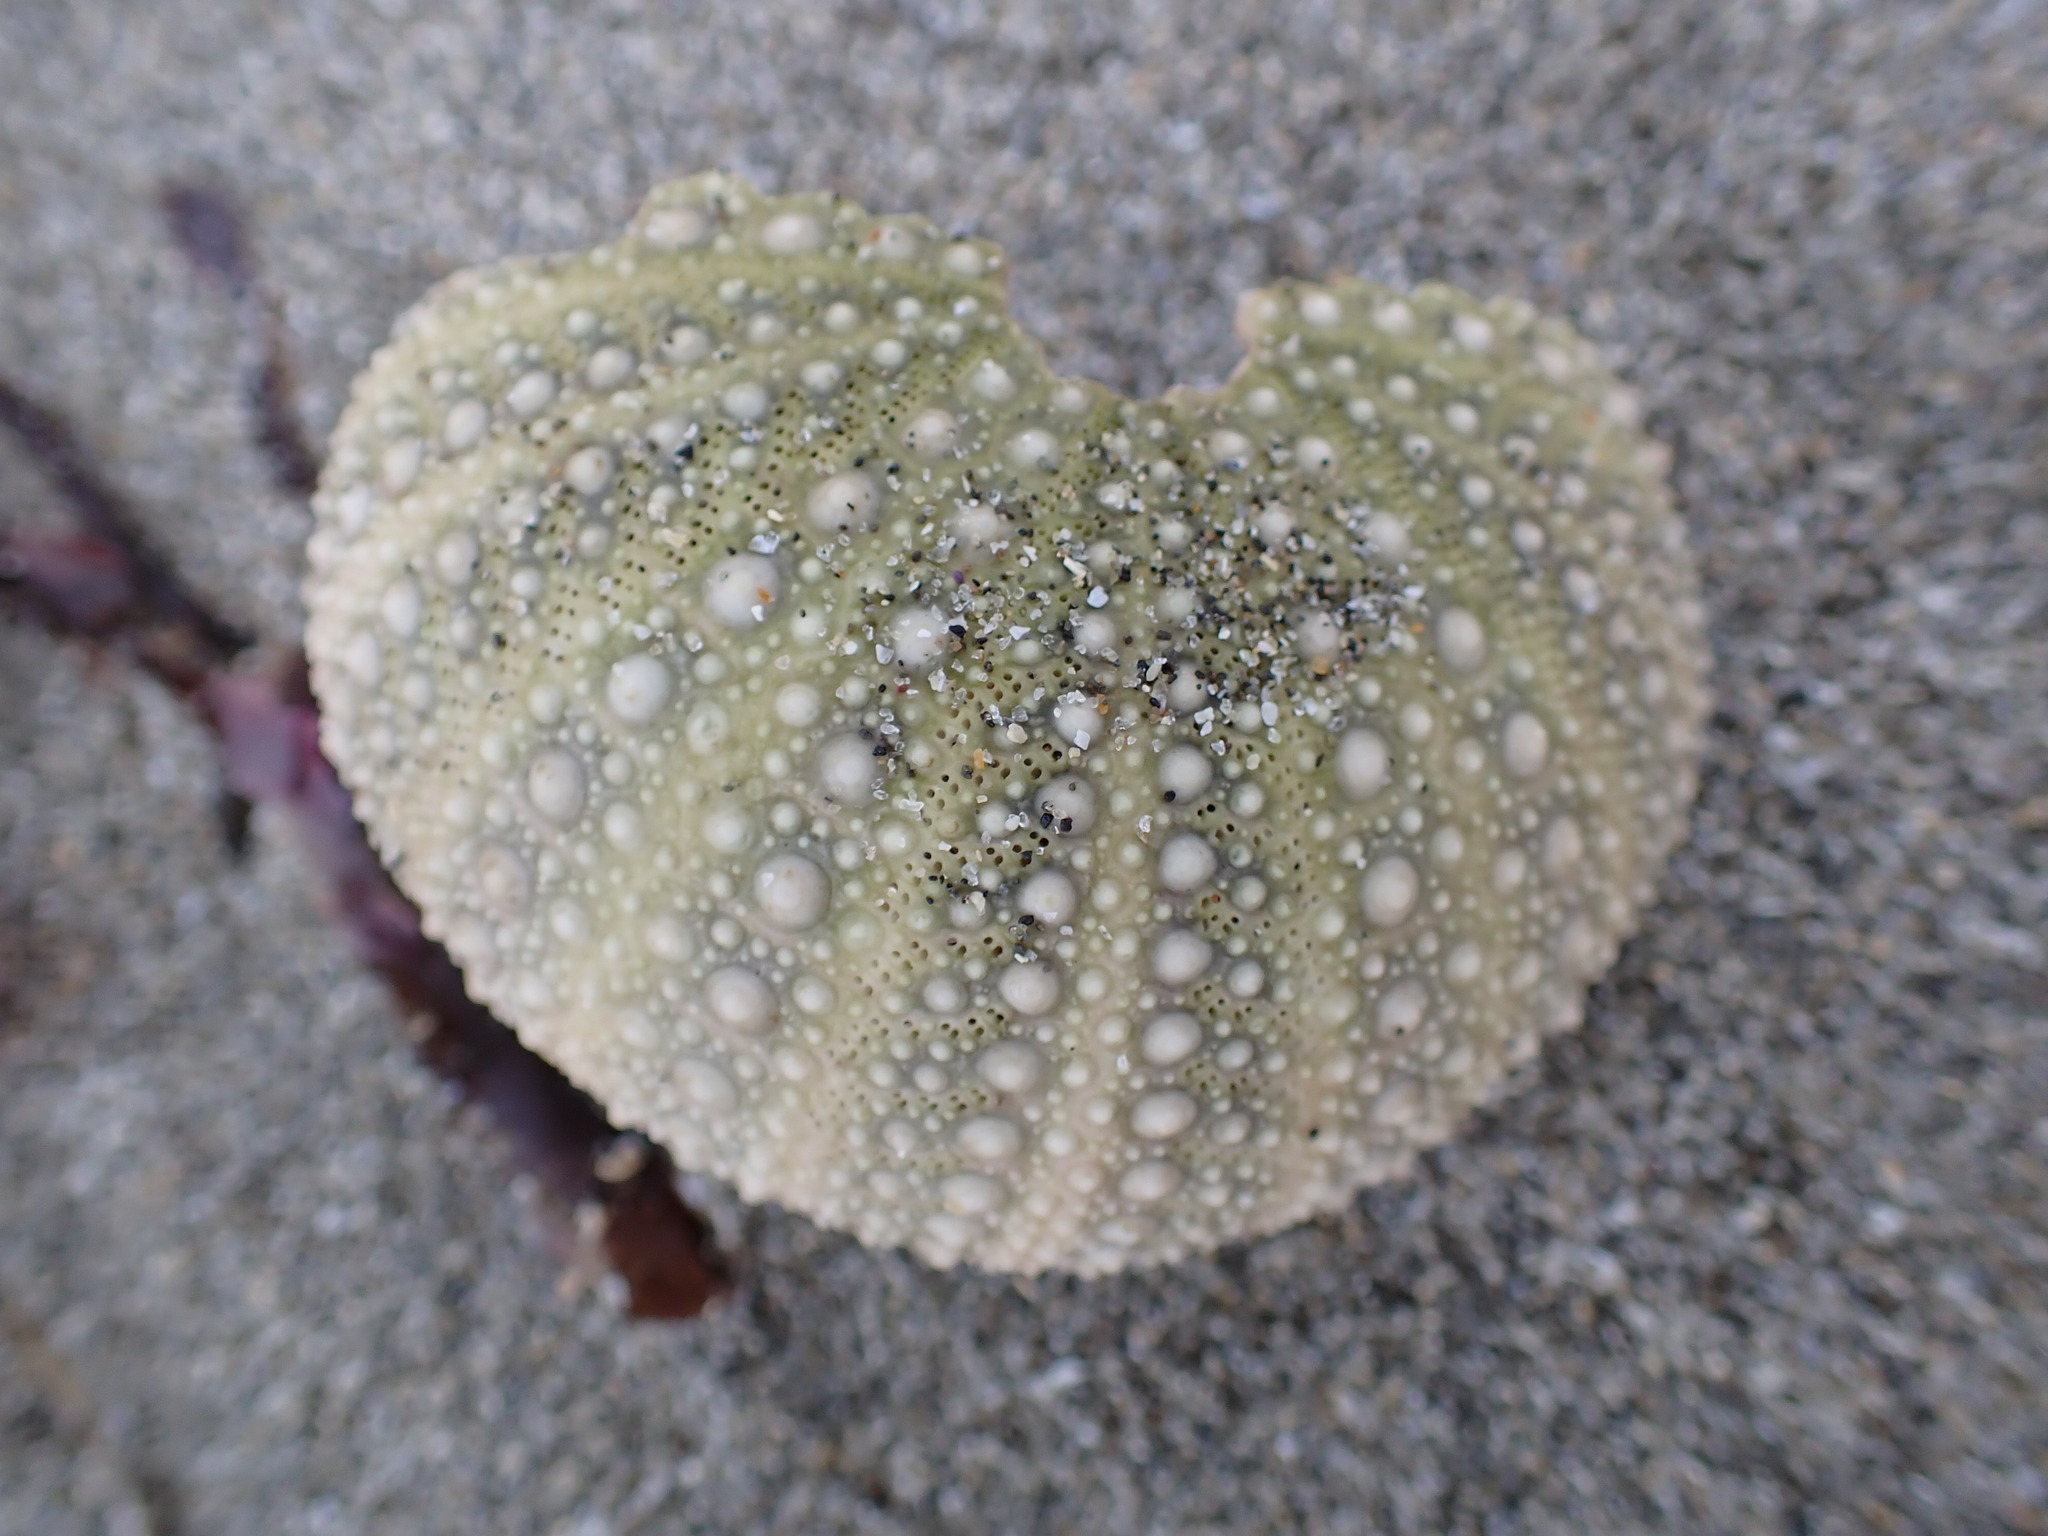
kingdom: Animalia
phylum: Echinodermata
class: Echinoidea
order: Camarodonta
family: Strongylocentrotidae
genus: Strongylocentrotus
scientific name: Strongylocentrotus purpuratus
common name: Purple sea urchin
